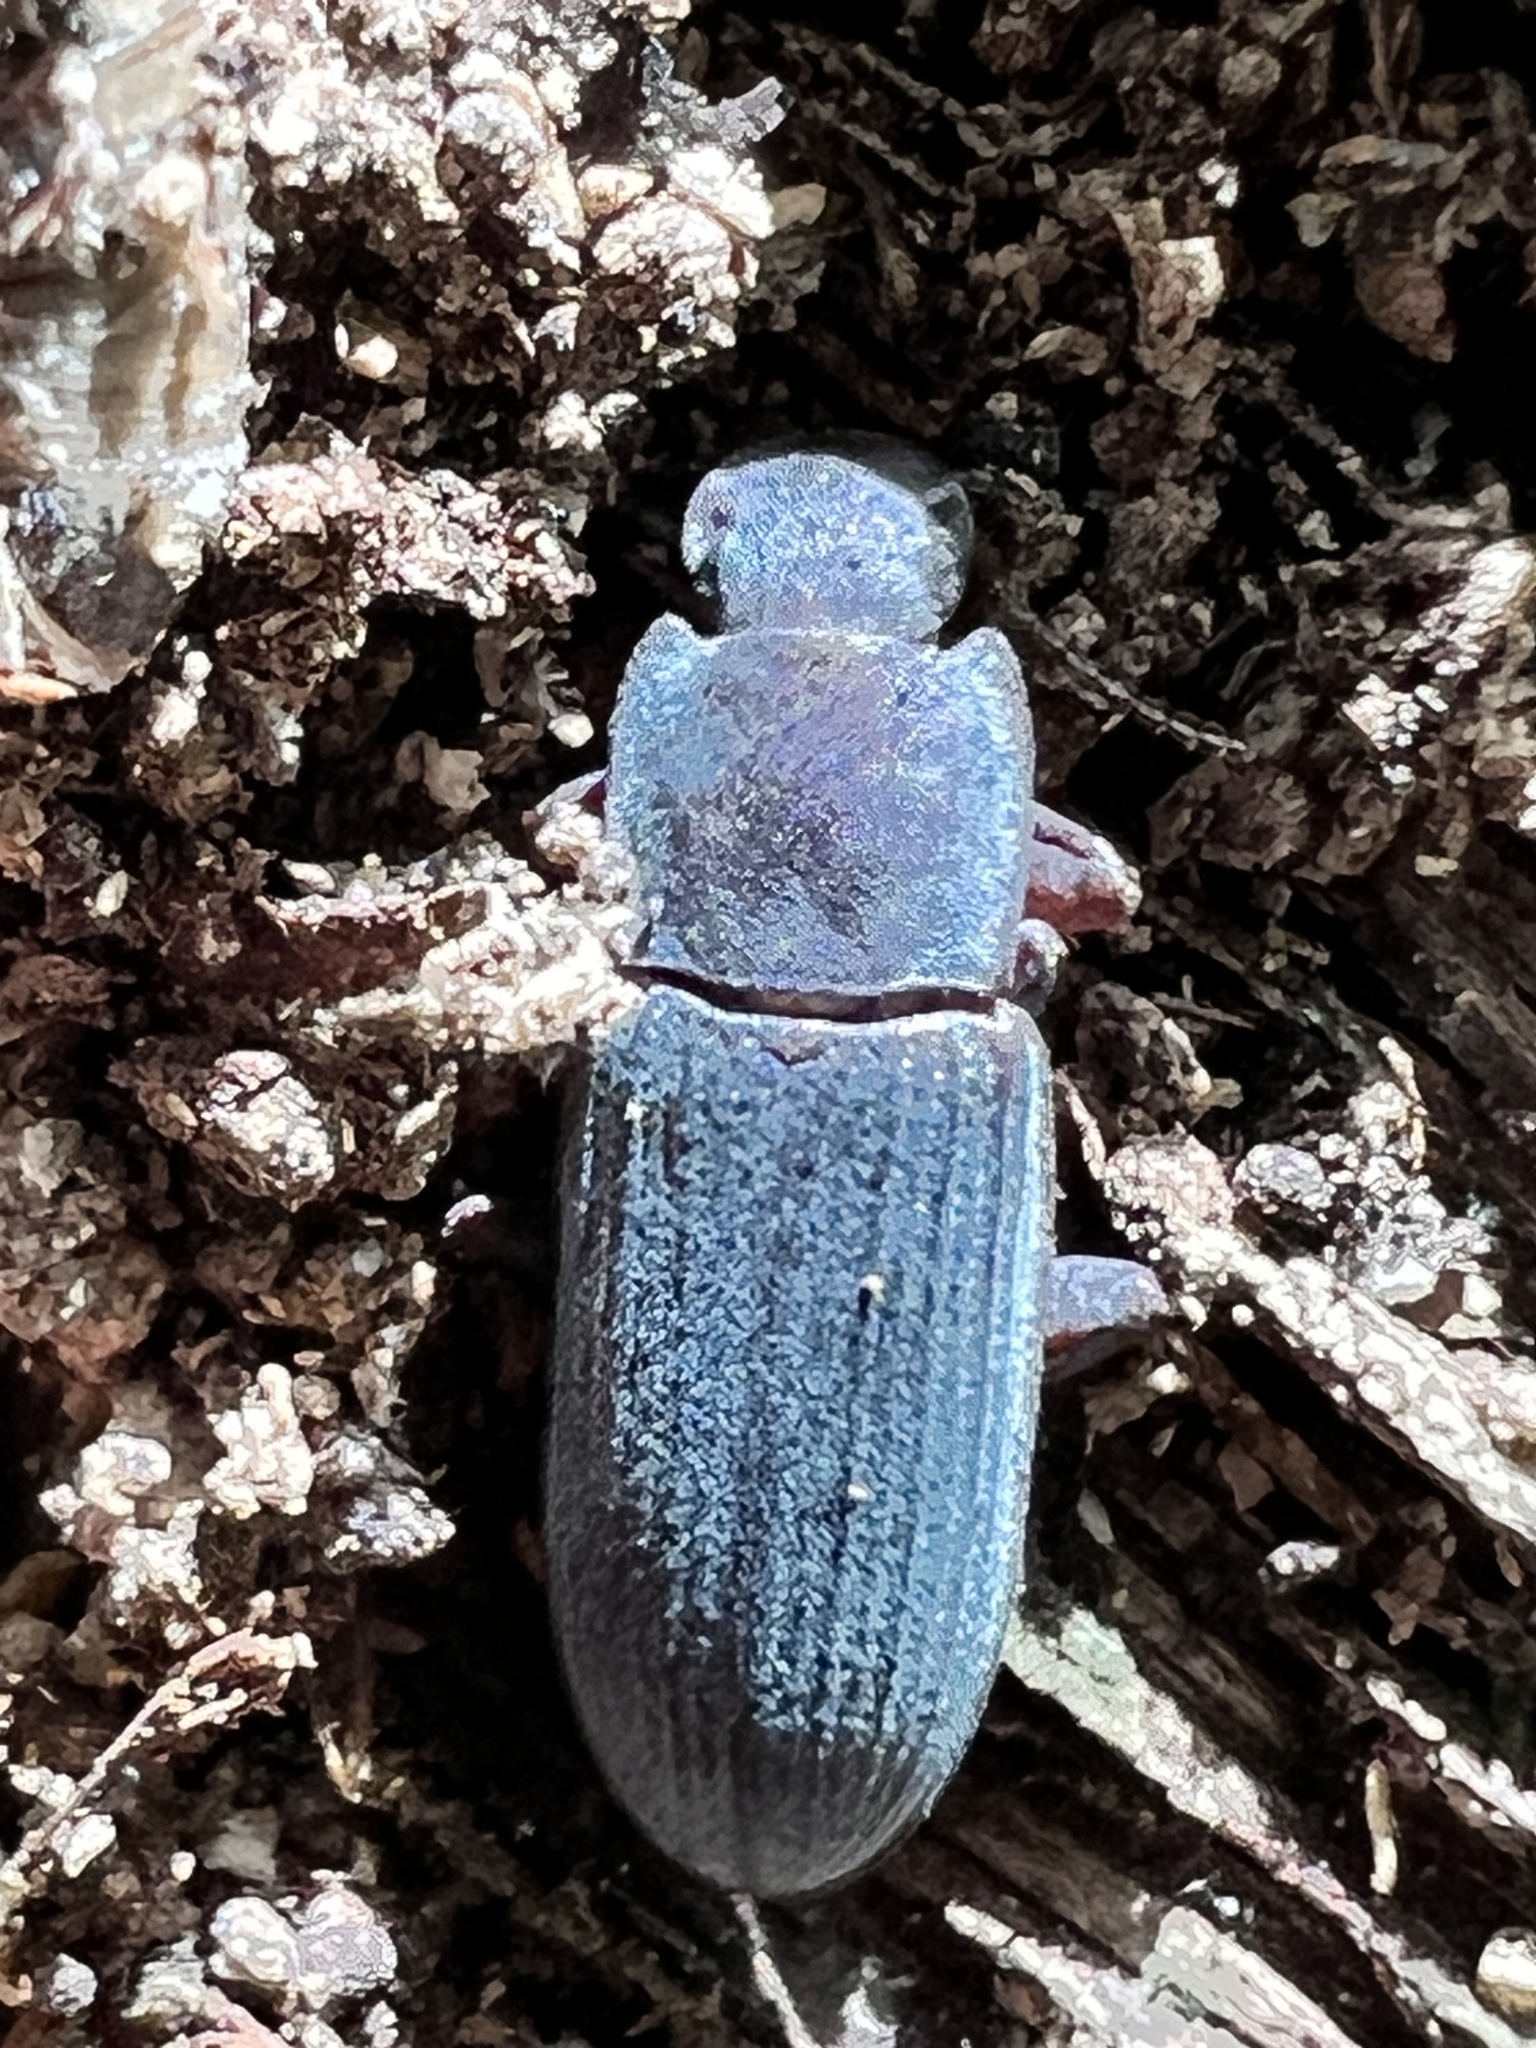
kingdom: Animalia
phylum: Arthropoda
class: Insecta
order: Coleoptera
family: Tenebrionidae
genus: Idiobates
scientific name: Idiobates castaneus
